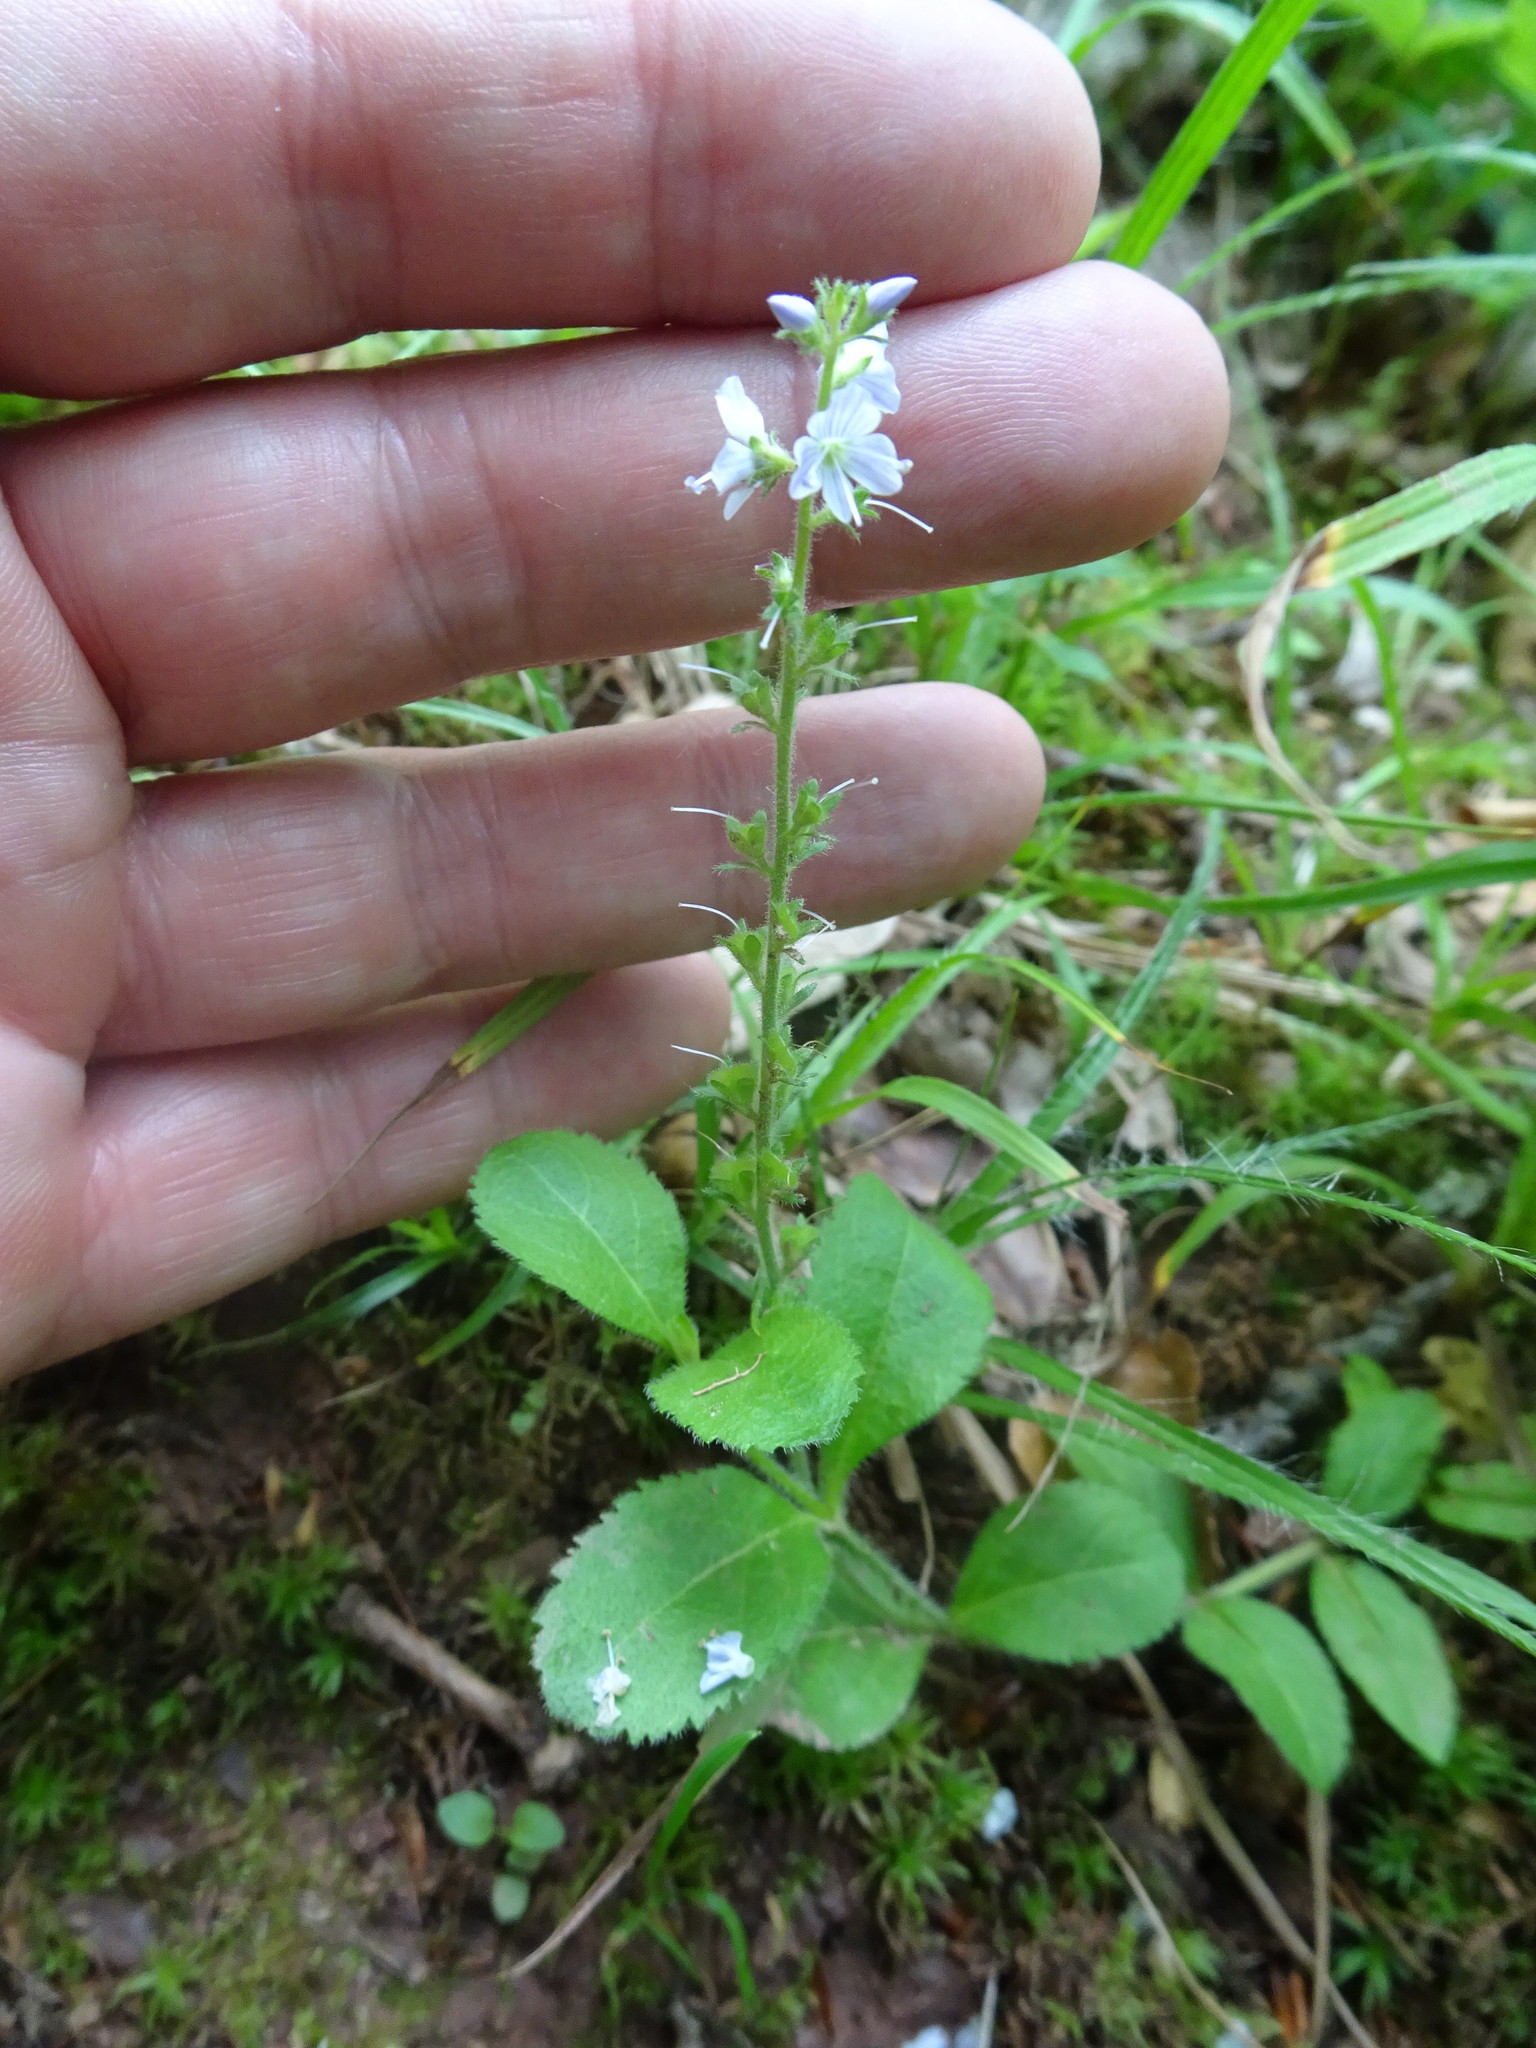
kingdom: Plantae
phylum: Tracheophyta
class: Magnoliopsida
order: Lamiales
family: Plantaginaceae
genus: Veronica
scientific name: Veronica officinalis
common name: Common speedwell
